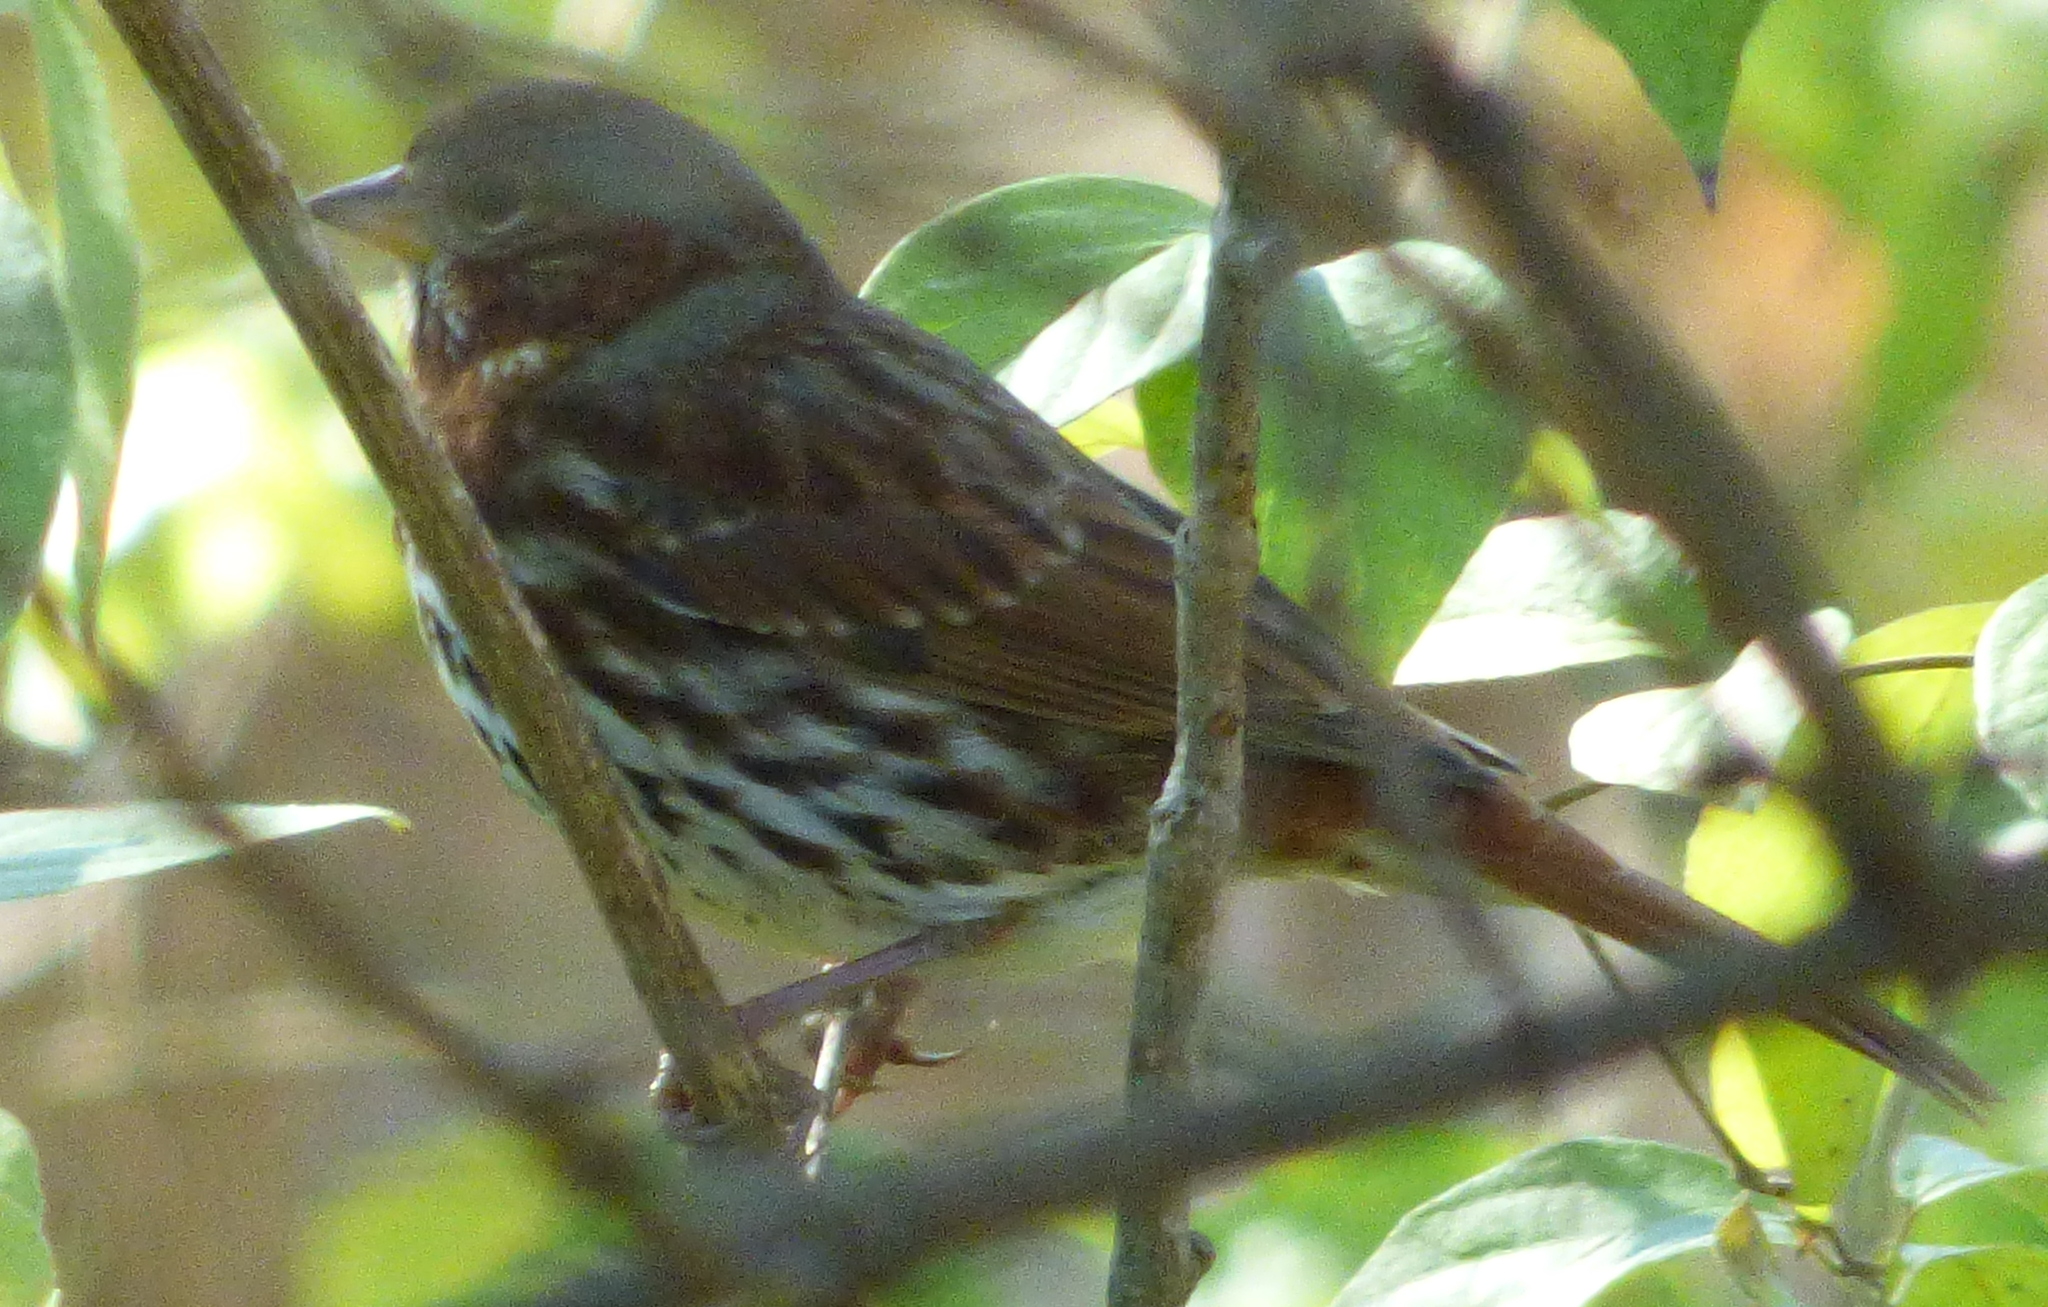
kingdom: Animalia
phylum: Chordata
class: Aves
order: Passeriformes
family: Passerellidae
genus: Passerella
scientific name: Passerella iliaca
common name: Fox sparrow
